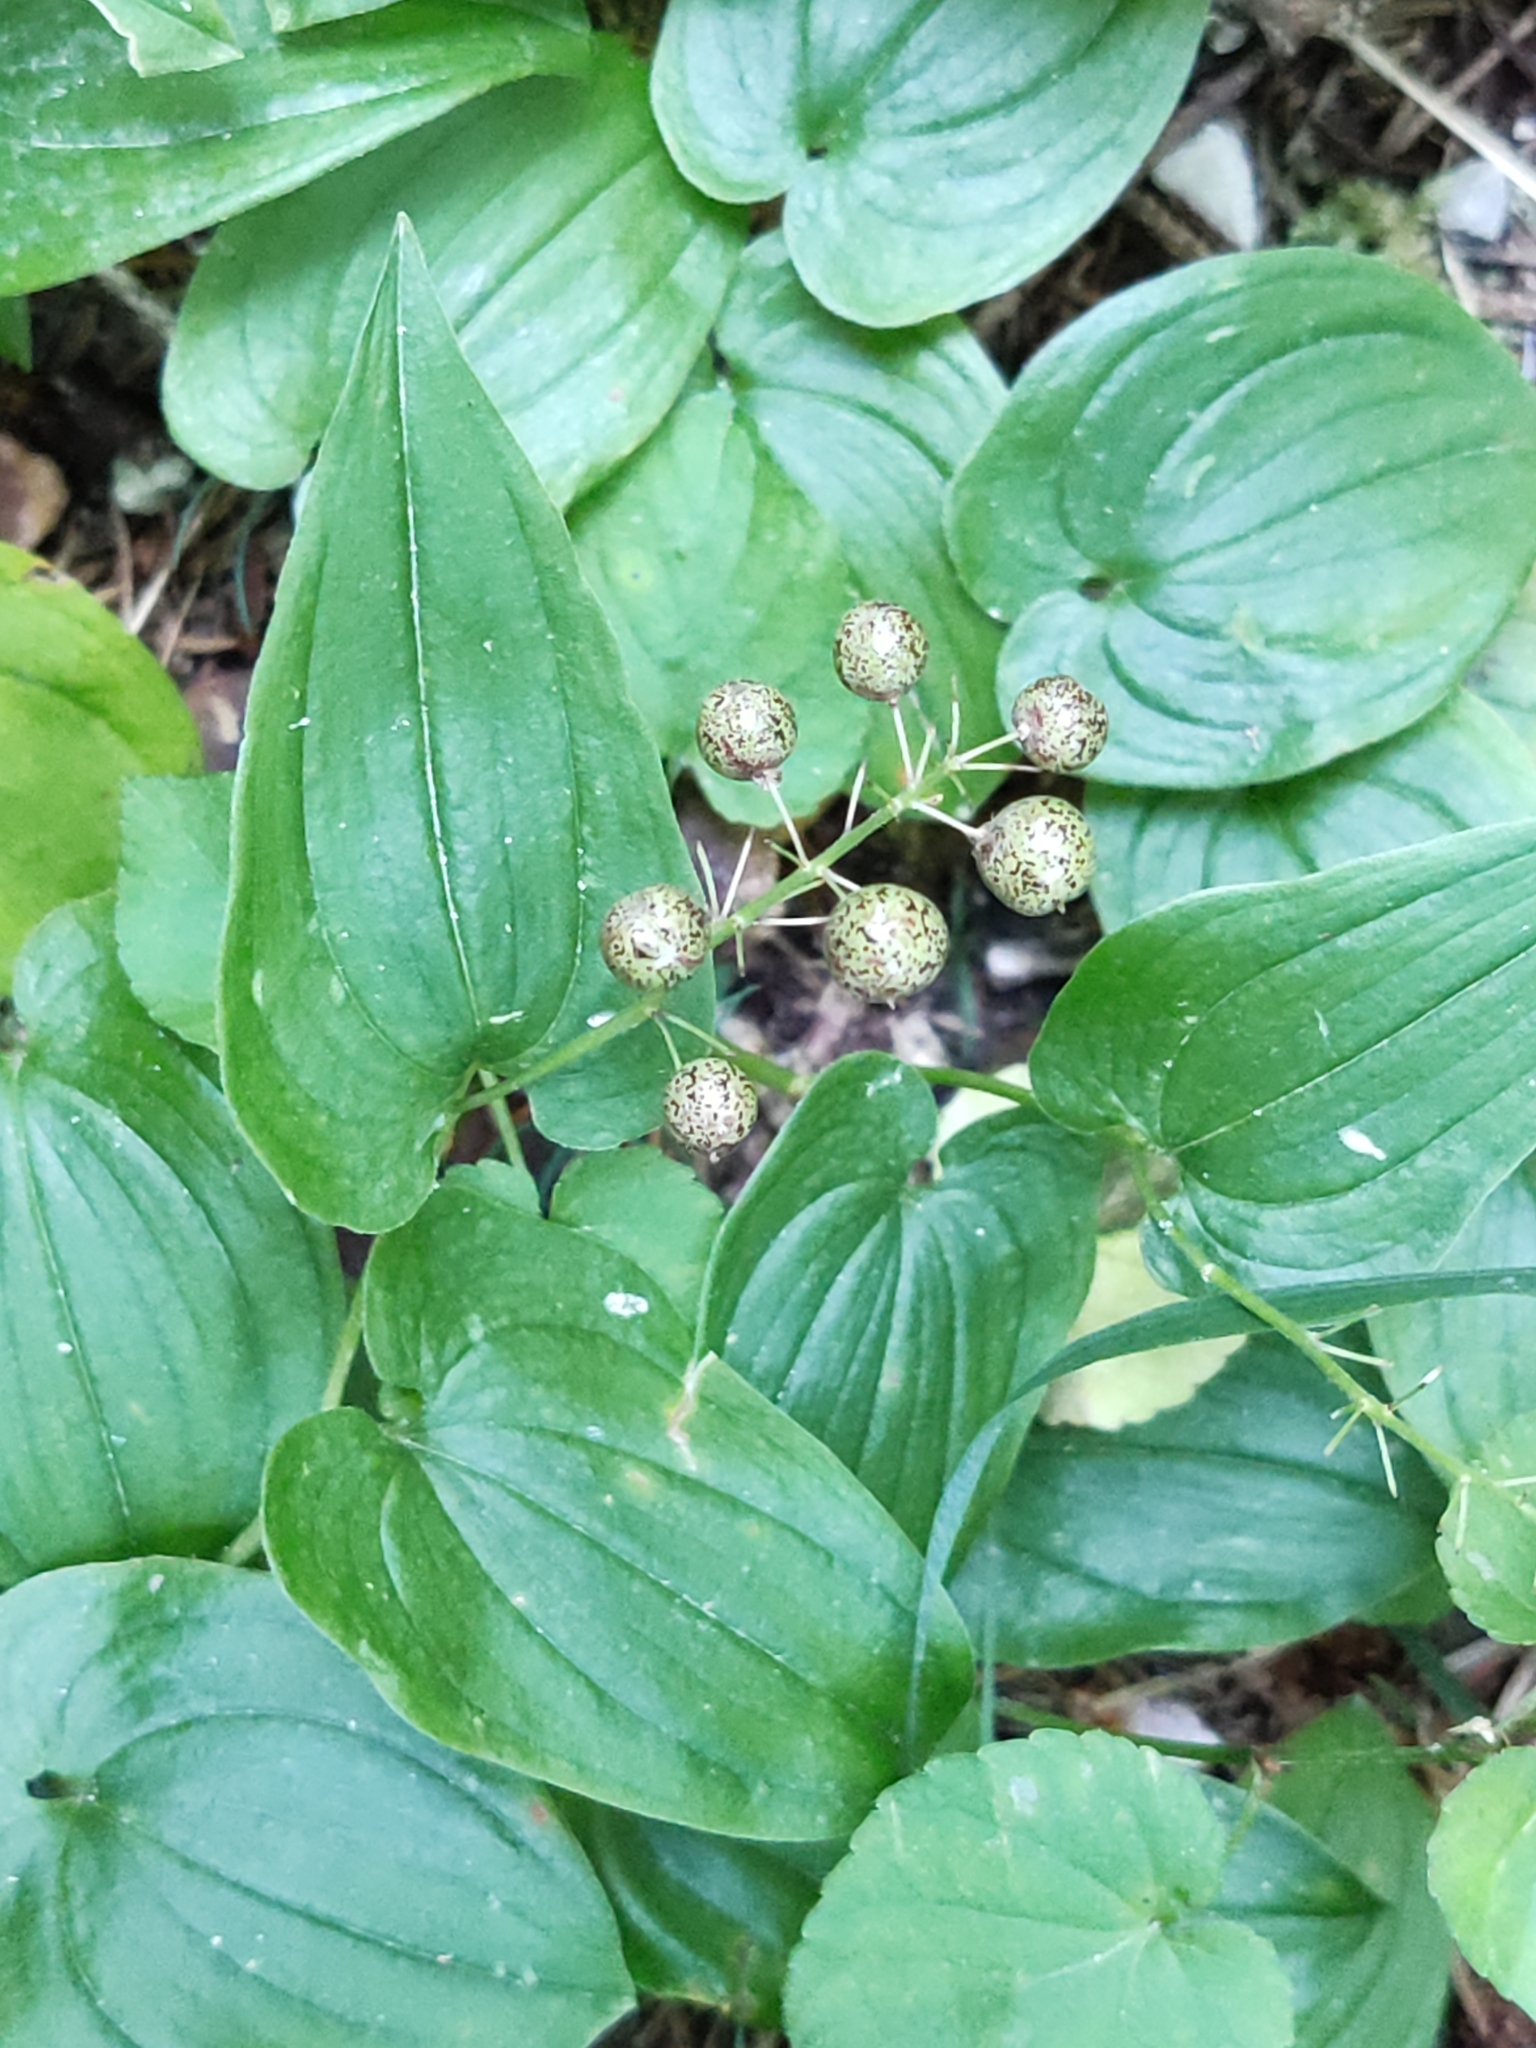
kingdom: Plantae
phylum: Tracheophyta
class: Liliopsida
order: Asparagales
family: Asparagaceae
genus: Maianthemum
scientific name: Maianthemum bifolium
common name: May lily
